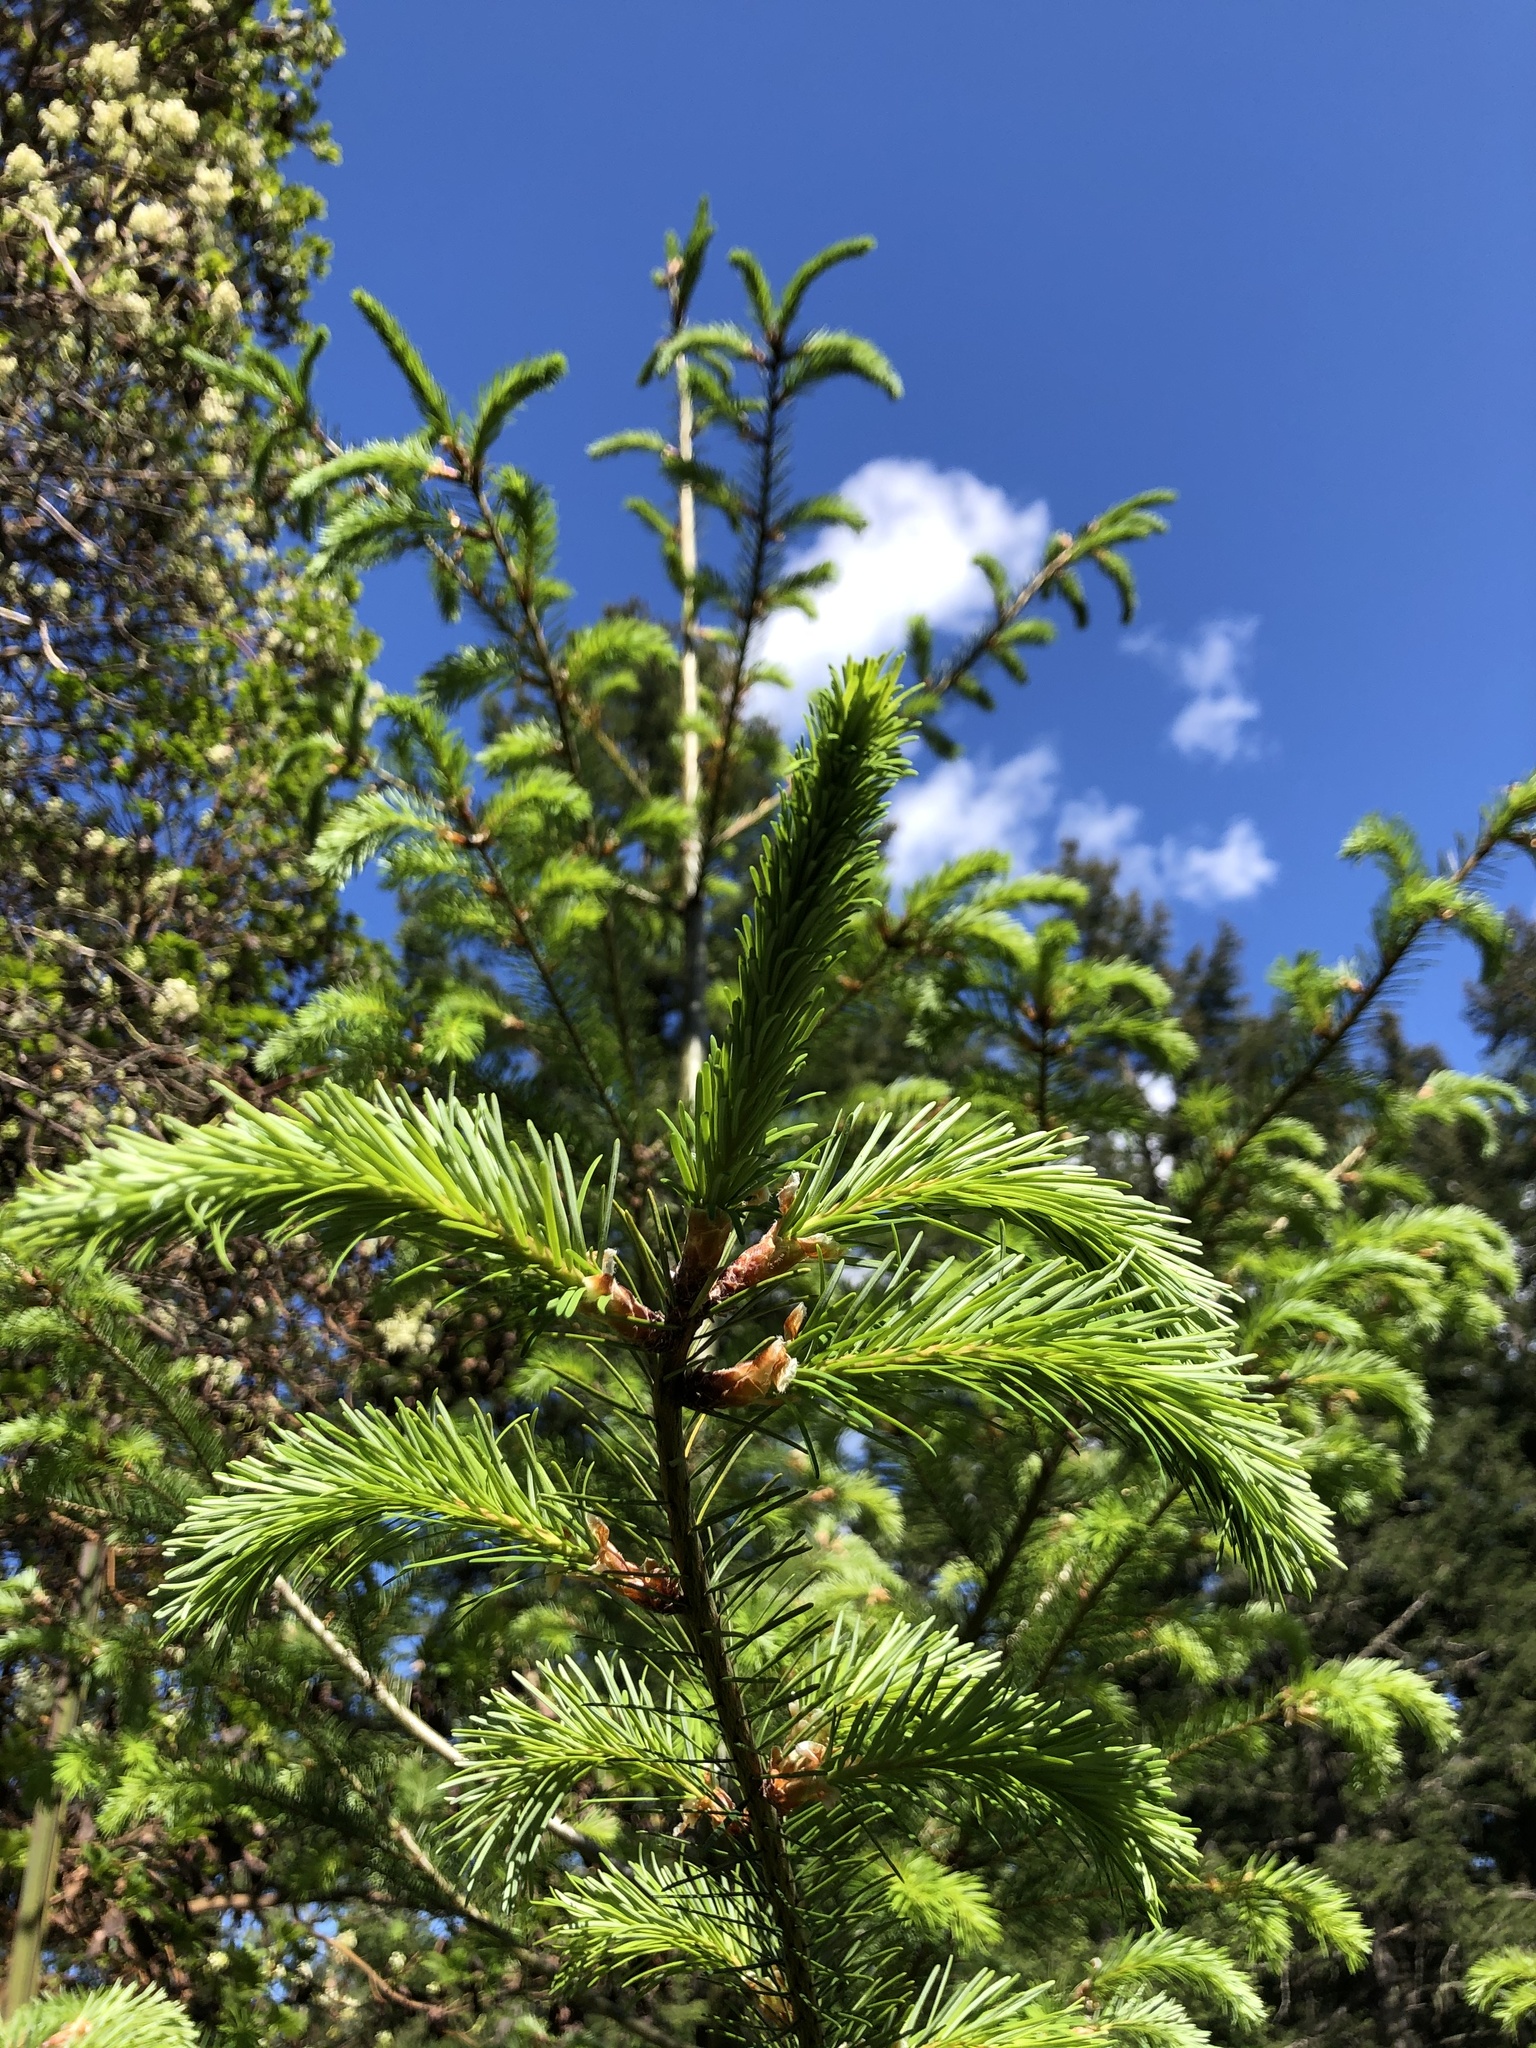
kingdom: Plantae
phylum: Tracheophyta
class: Pinopsida
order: Pinales
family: Pinaceae
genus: Pseudotsuga
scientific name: Pseudotsuga menziesii
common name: Douglas fir
